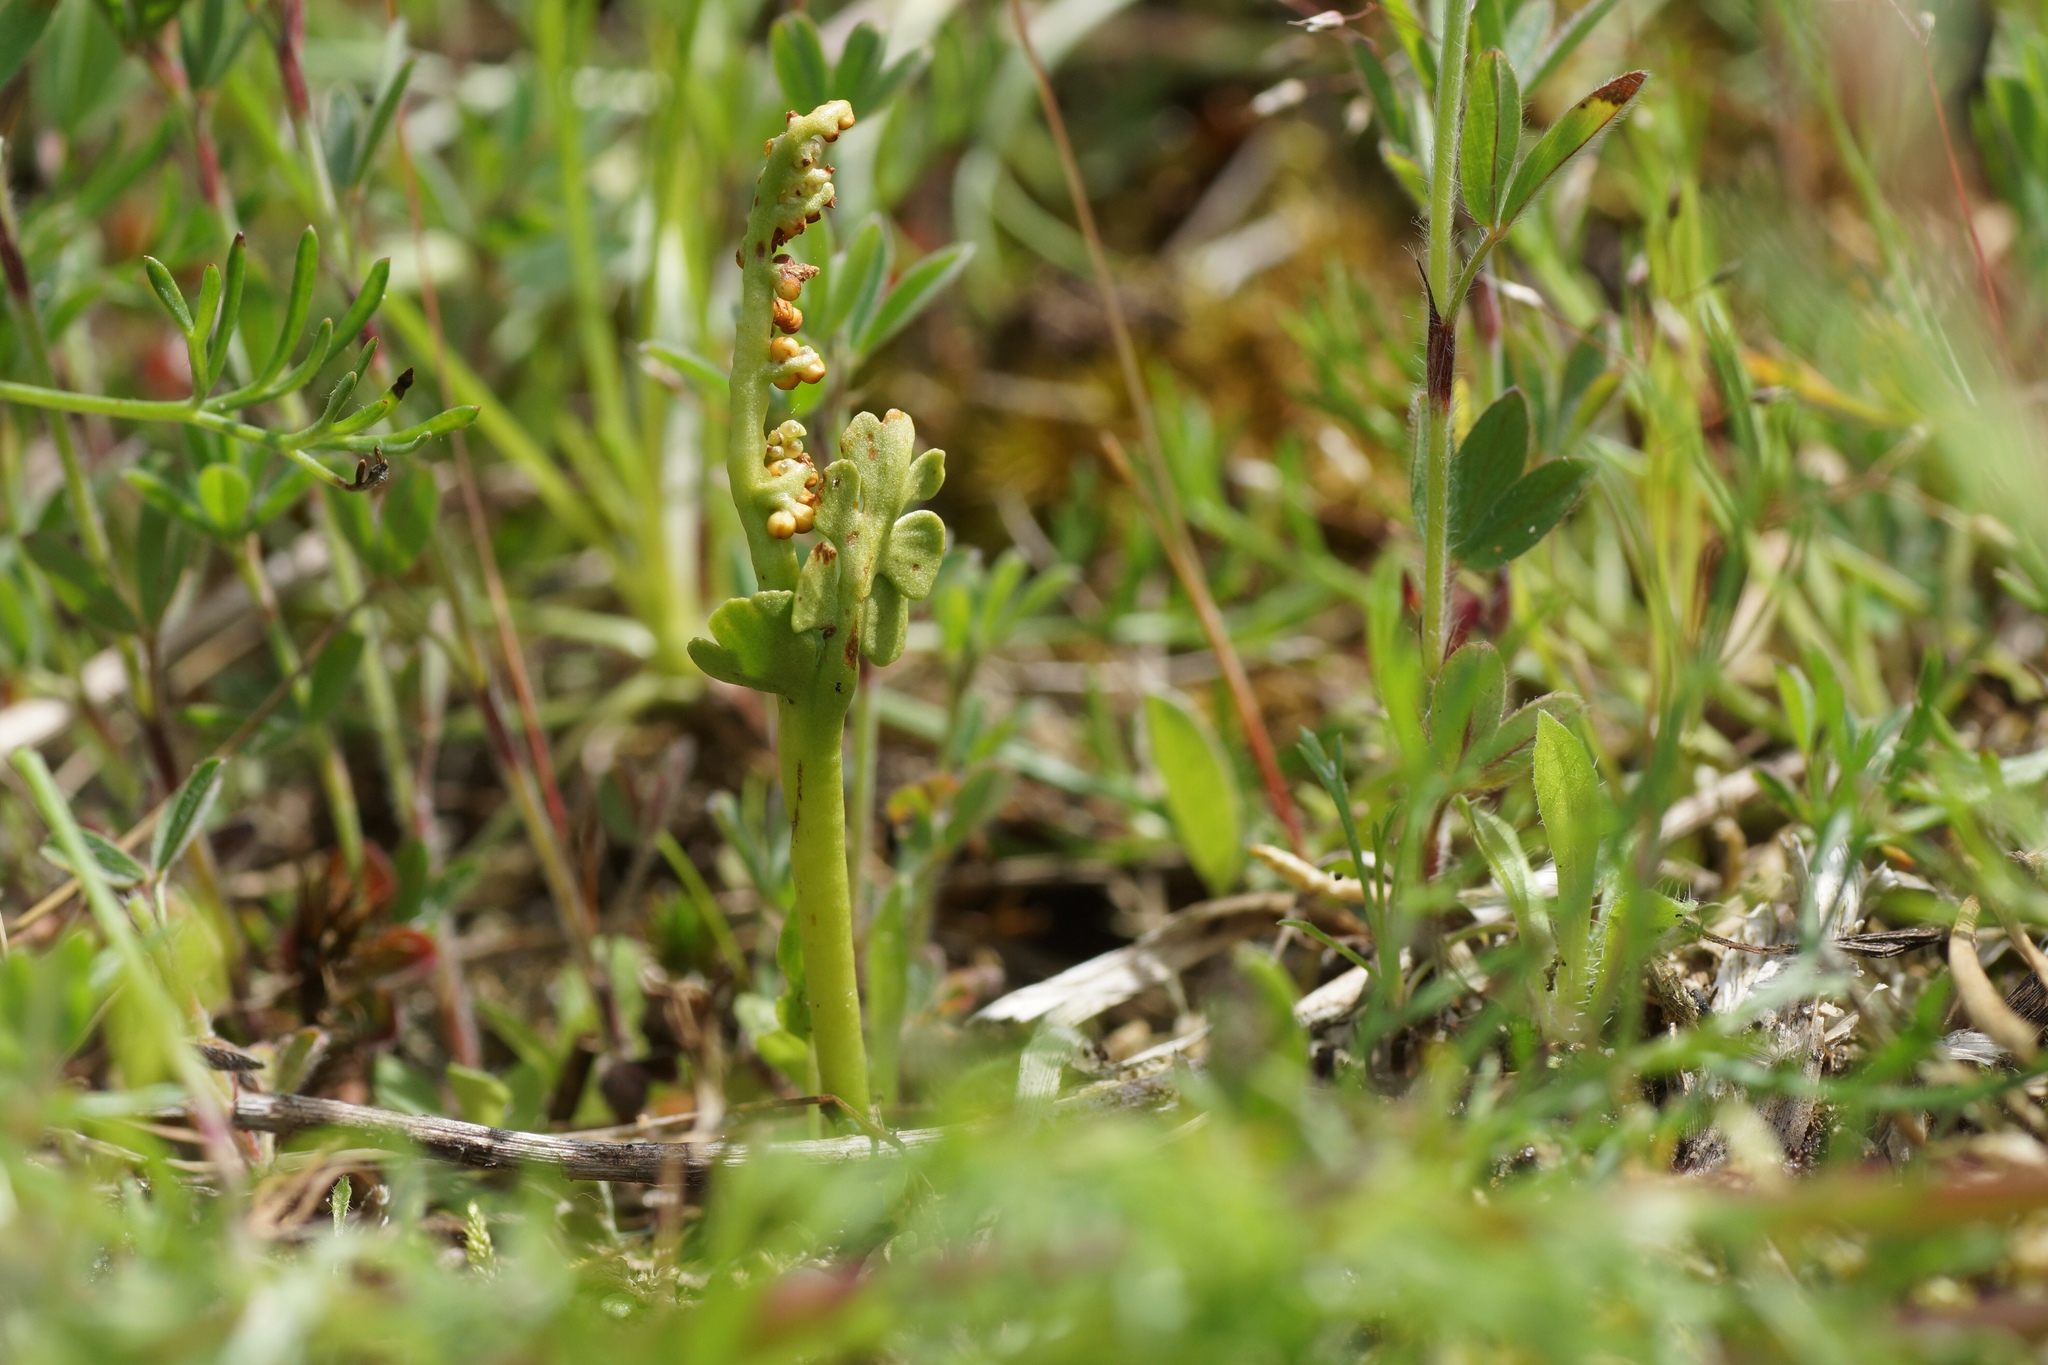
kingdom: Plantae
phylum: Tracheophyta
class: Polypodiopsida
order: Ophioglossales
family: Ophioglossaceae
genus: Botrychium
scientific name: Botrychium lunaria
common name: Moonwort
